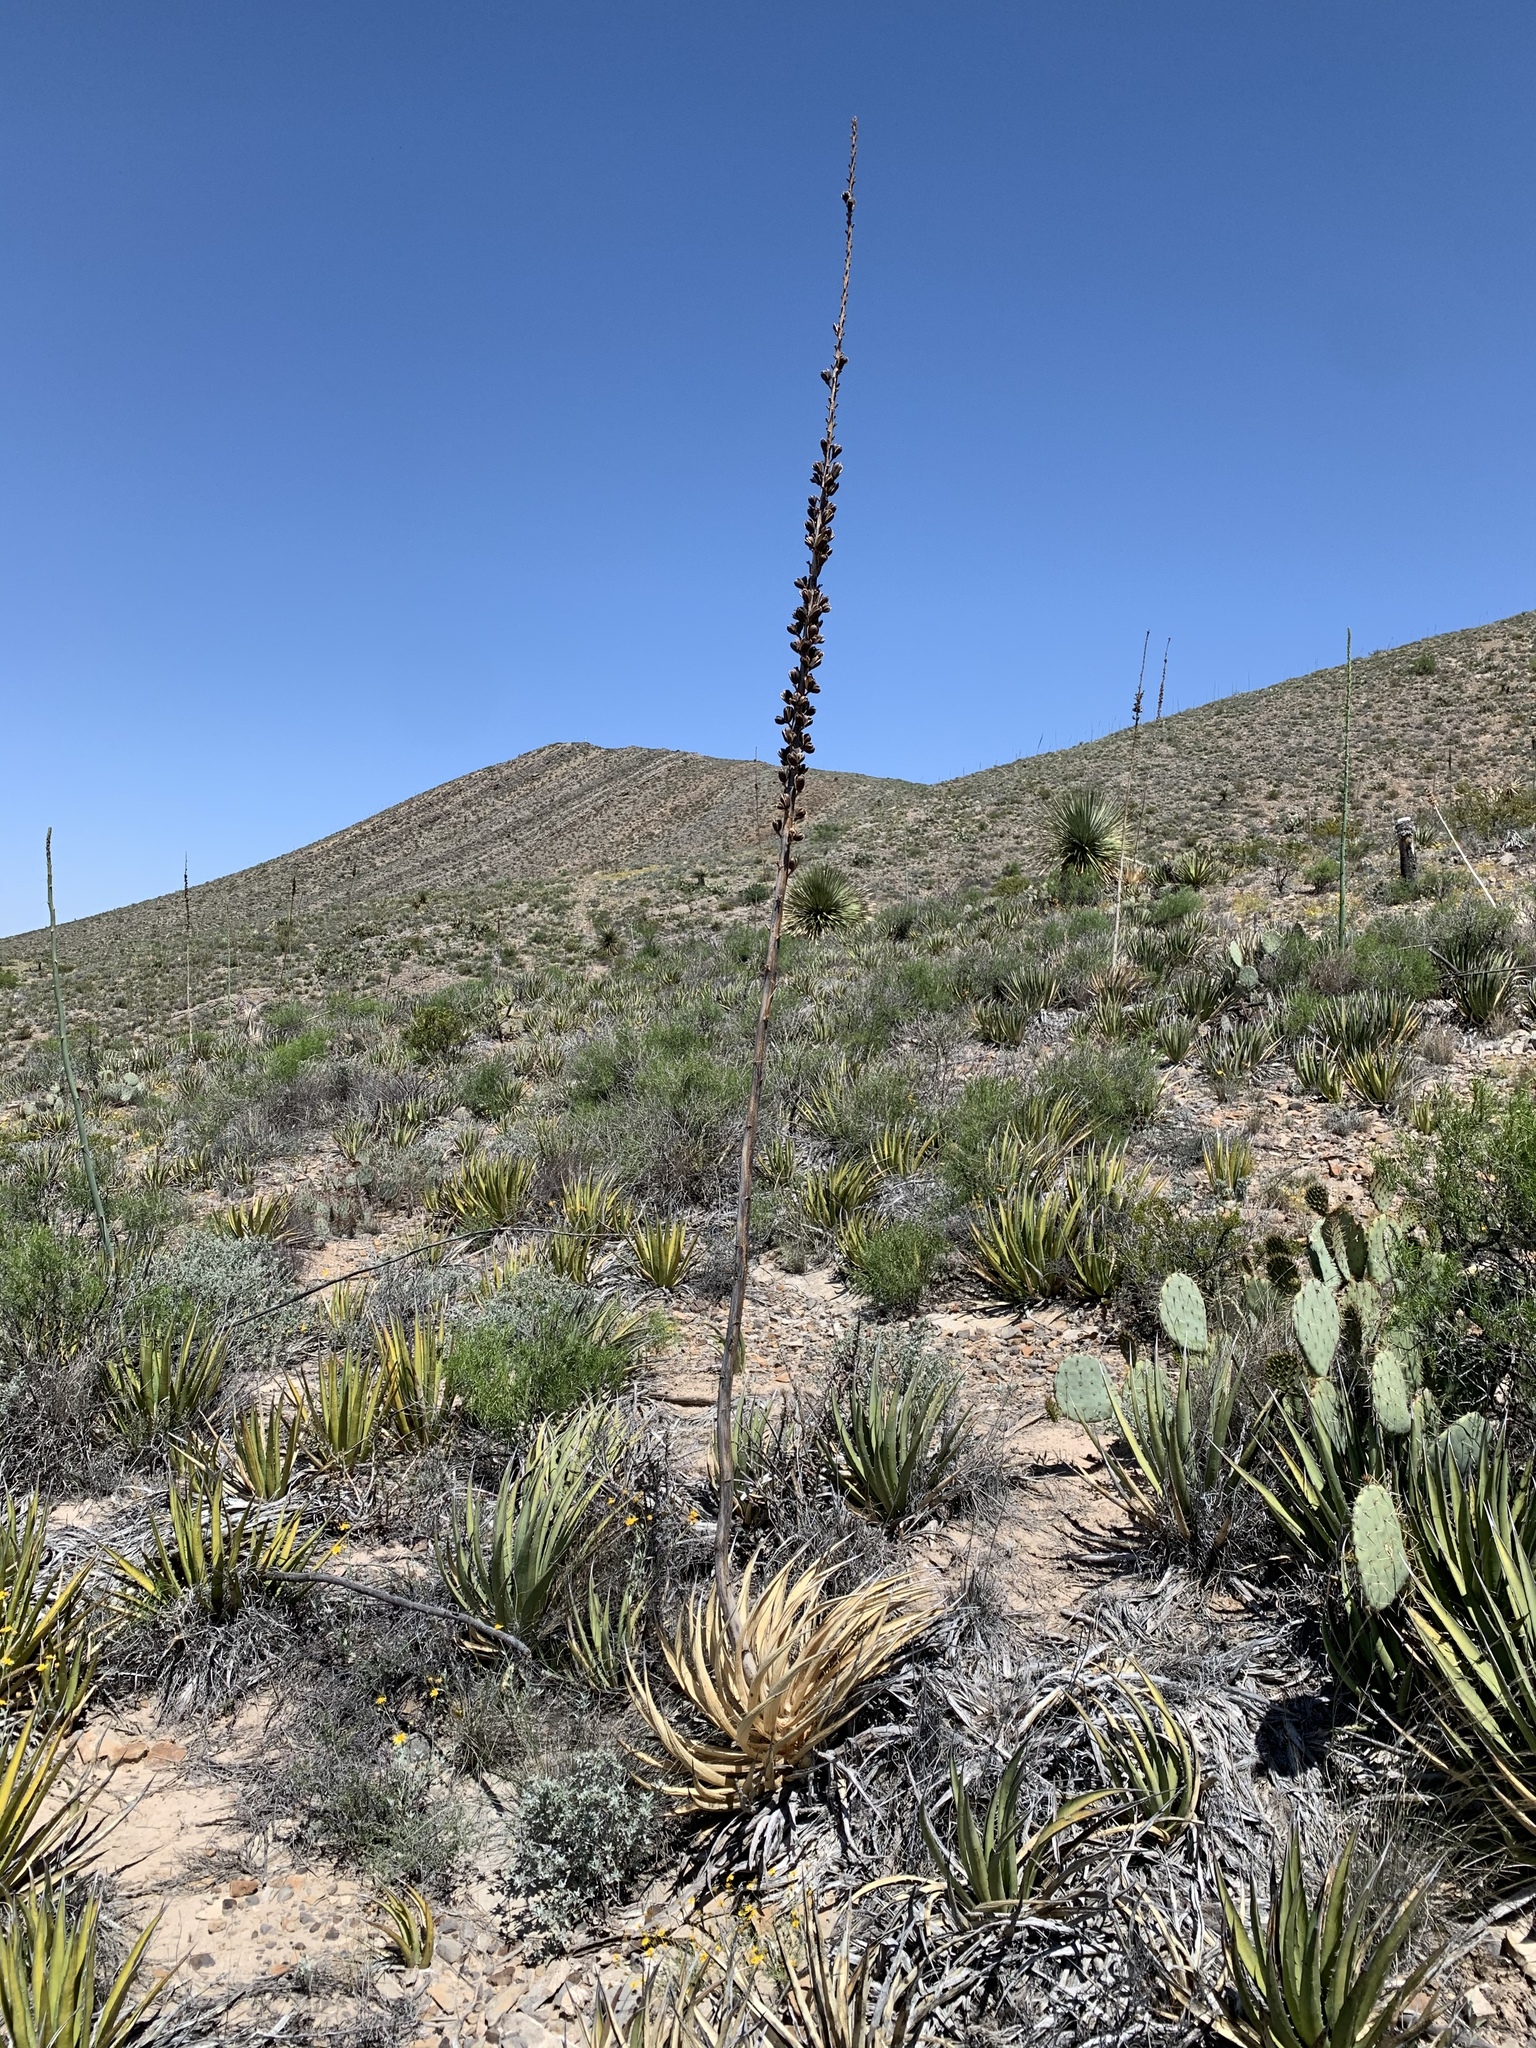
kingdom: Plantae
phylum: Tracheophyta
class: Liliopsida
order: Asparagales
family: Asparagaceae
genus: Agave
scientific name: Agave lechuguilla
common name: Lecheguilla agave
